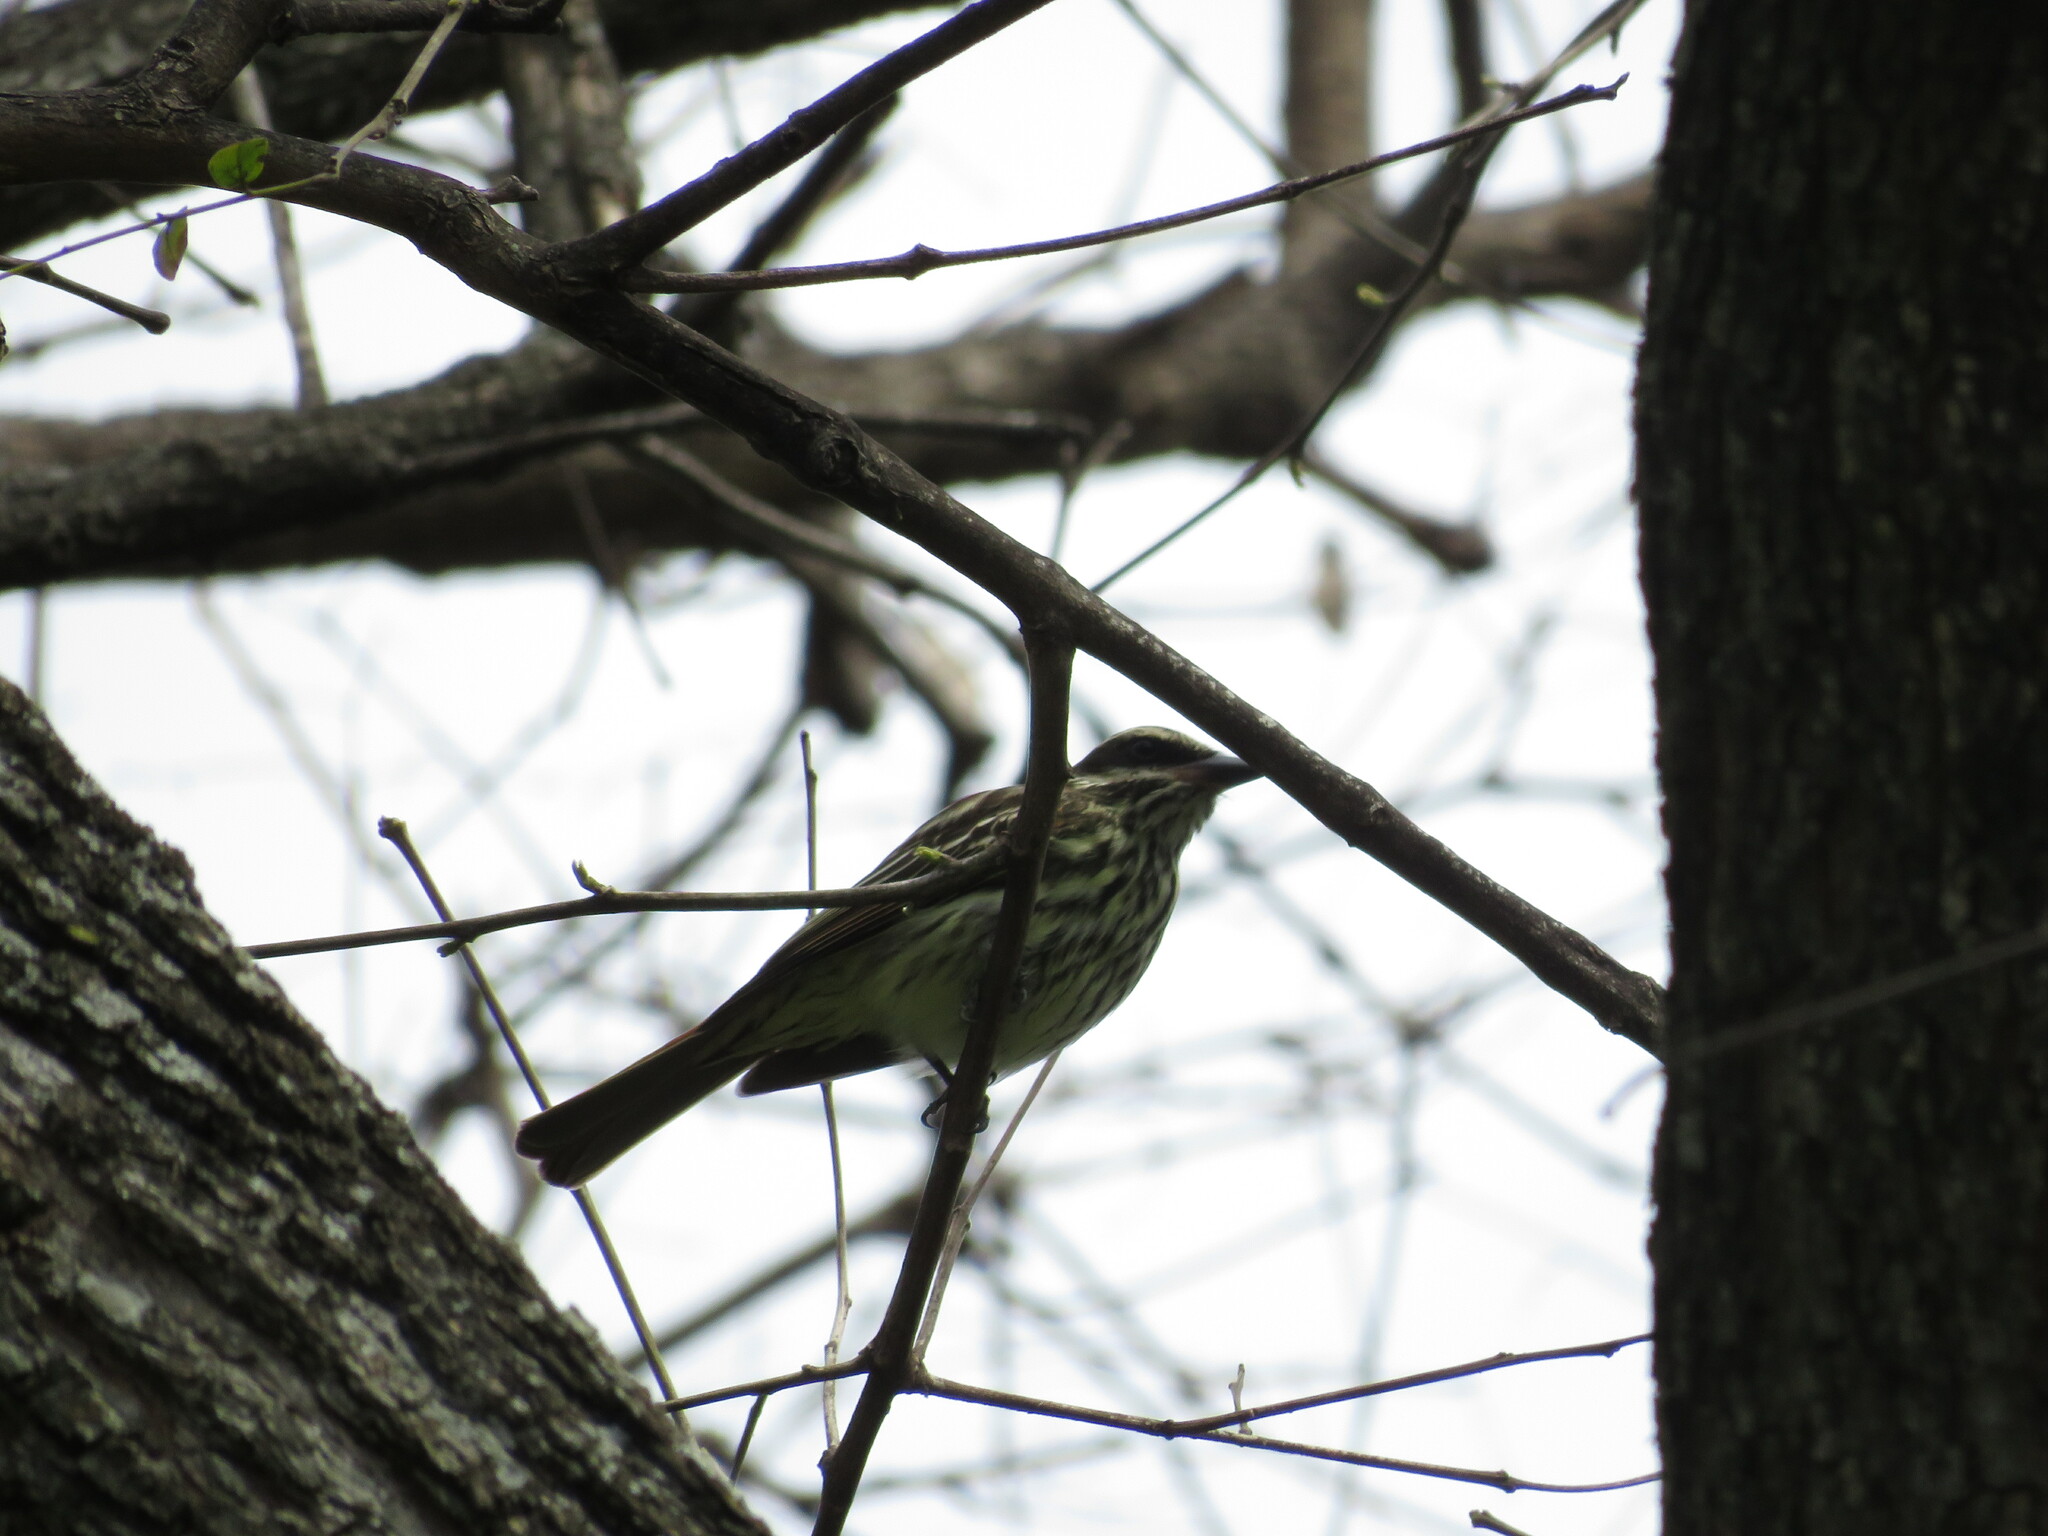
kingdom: Animalia
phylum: Chordata
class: Aves
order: Passeriformes
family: Tyrannidae
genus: Myiodynastes
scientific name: Myiodynastes maculatus
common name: Streaked flycatcher
